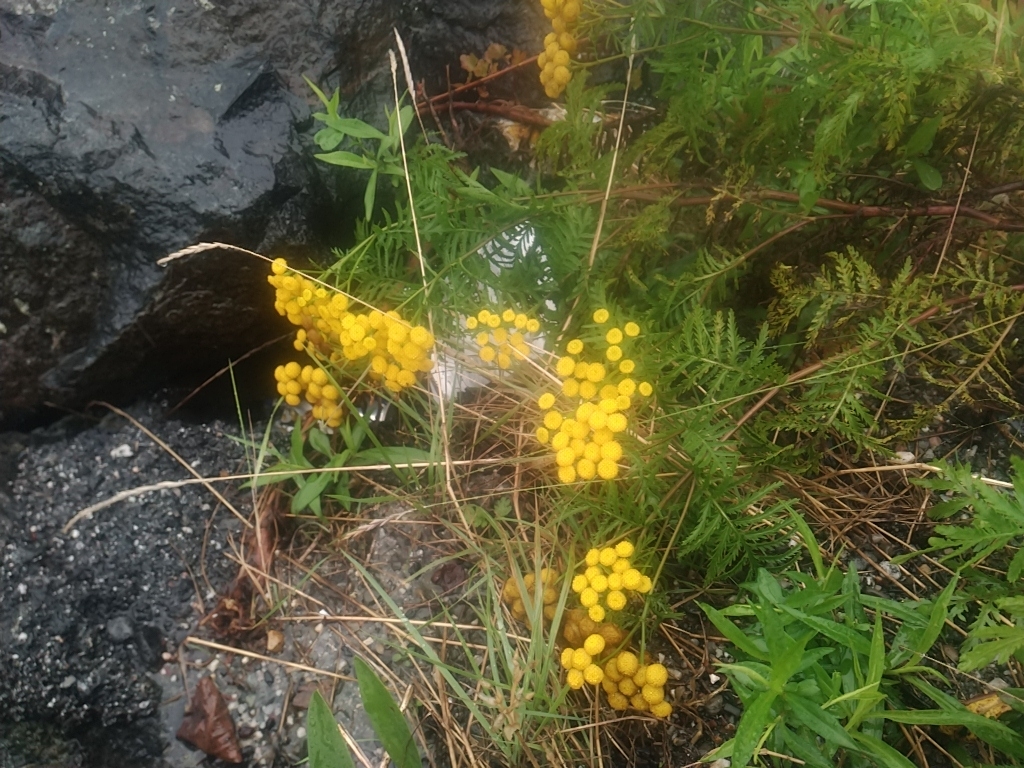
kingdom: Plantae
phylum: Tracheophyta
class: Magnoliopsida
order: Asterales
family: Asteraceae
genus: Tanacetum
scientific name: Tanacetum vulgare
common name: Common tansy
